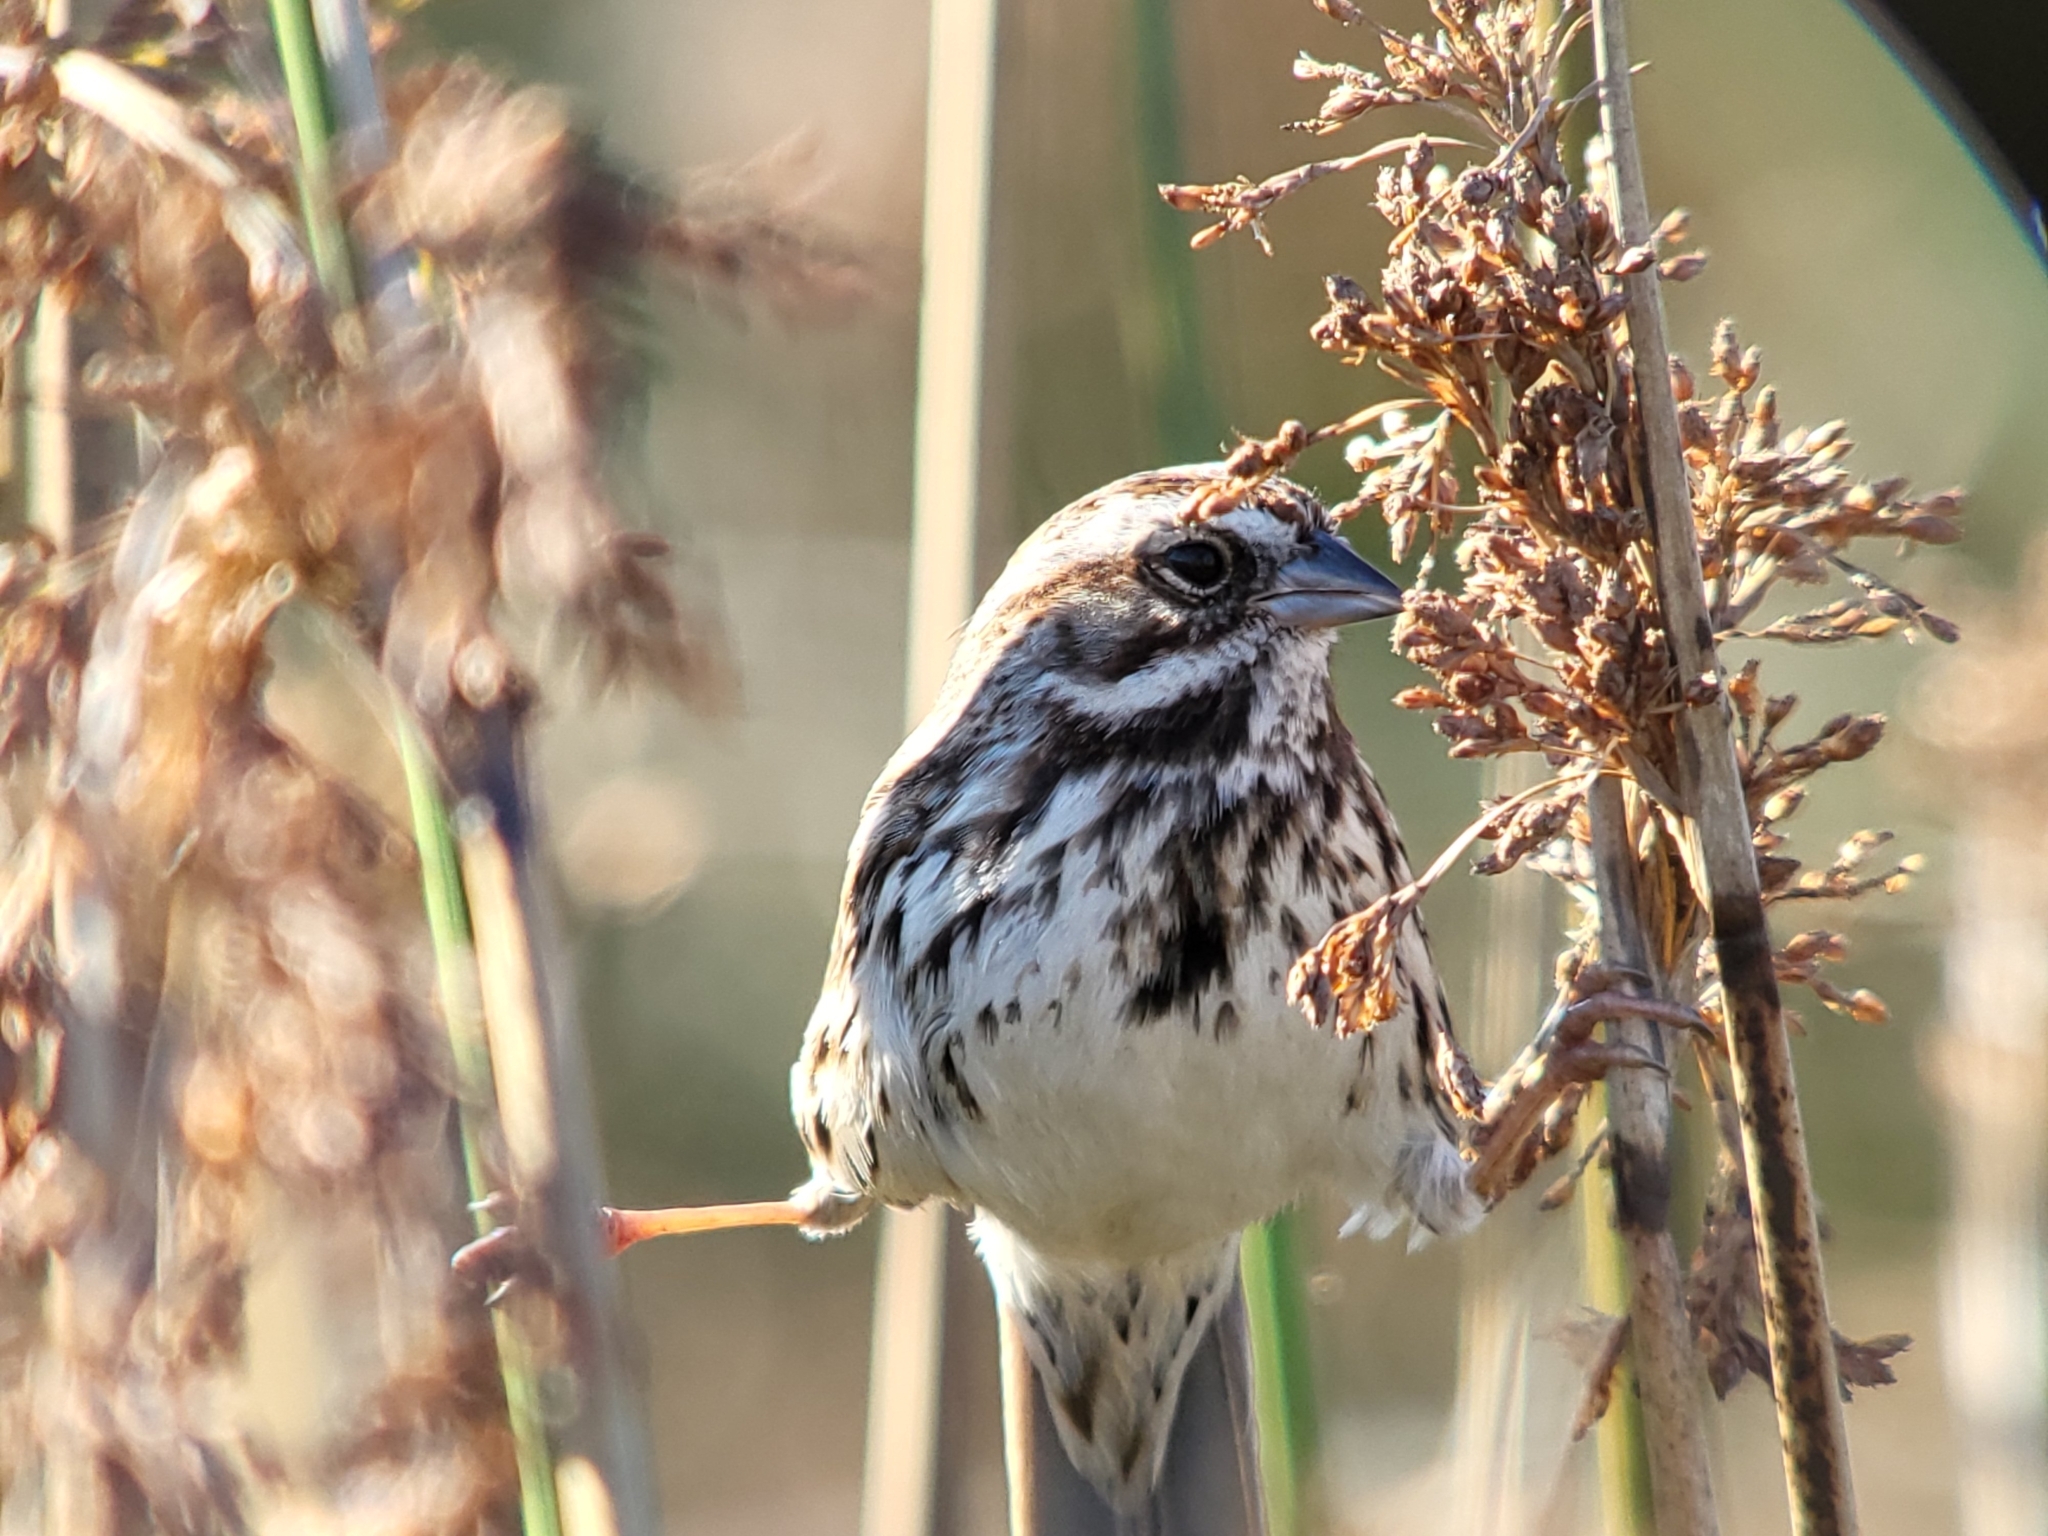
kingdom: Animalia
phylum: Chordata
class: Aves
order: Passeriformes
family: Passerellidae
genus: Melospiza
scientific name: Melospiza melodia
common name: Song sparrow
